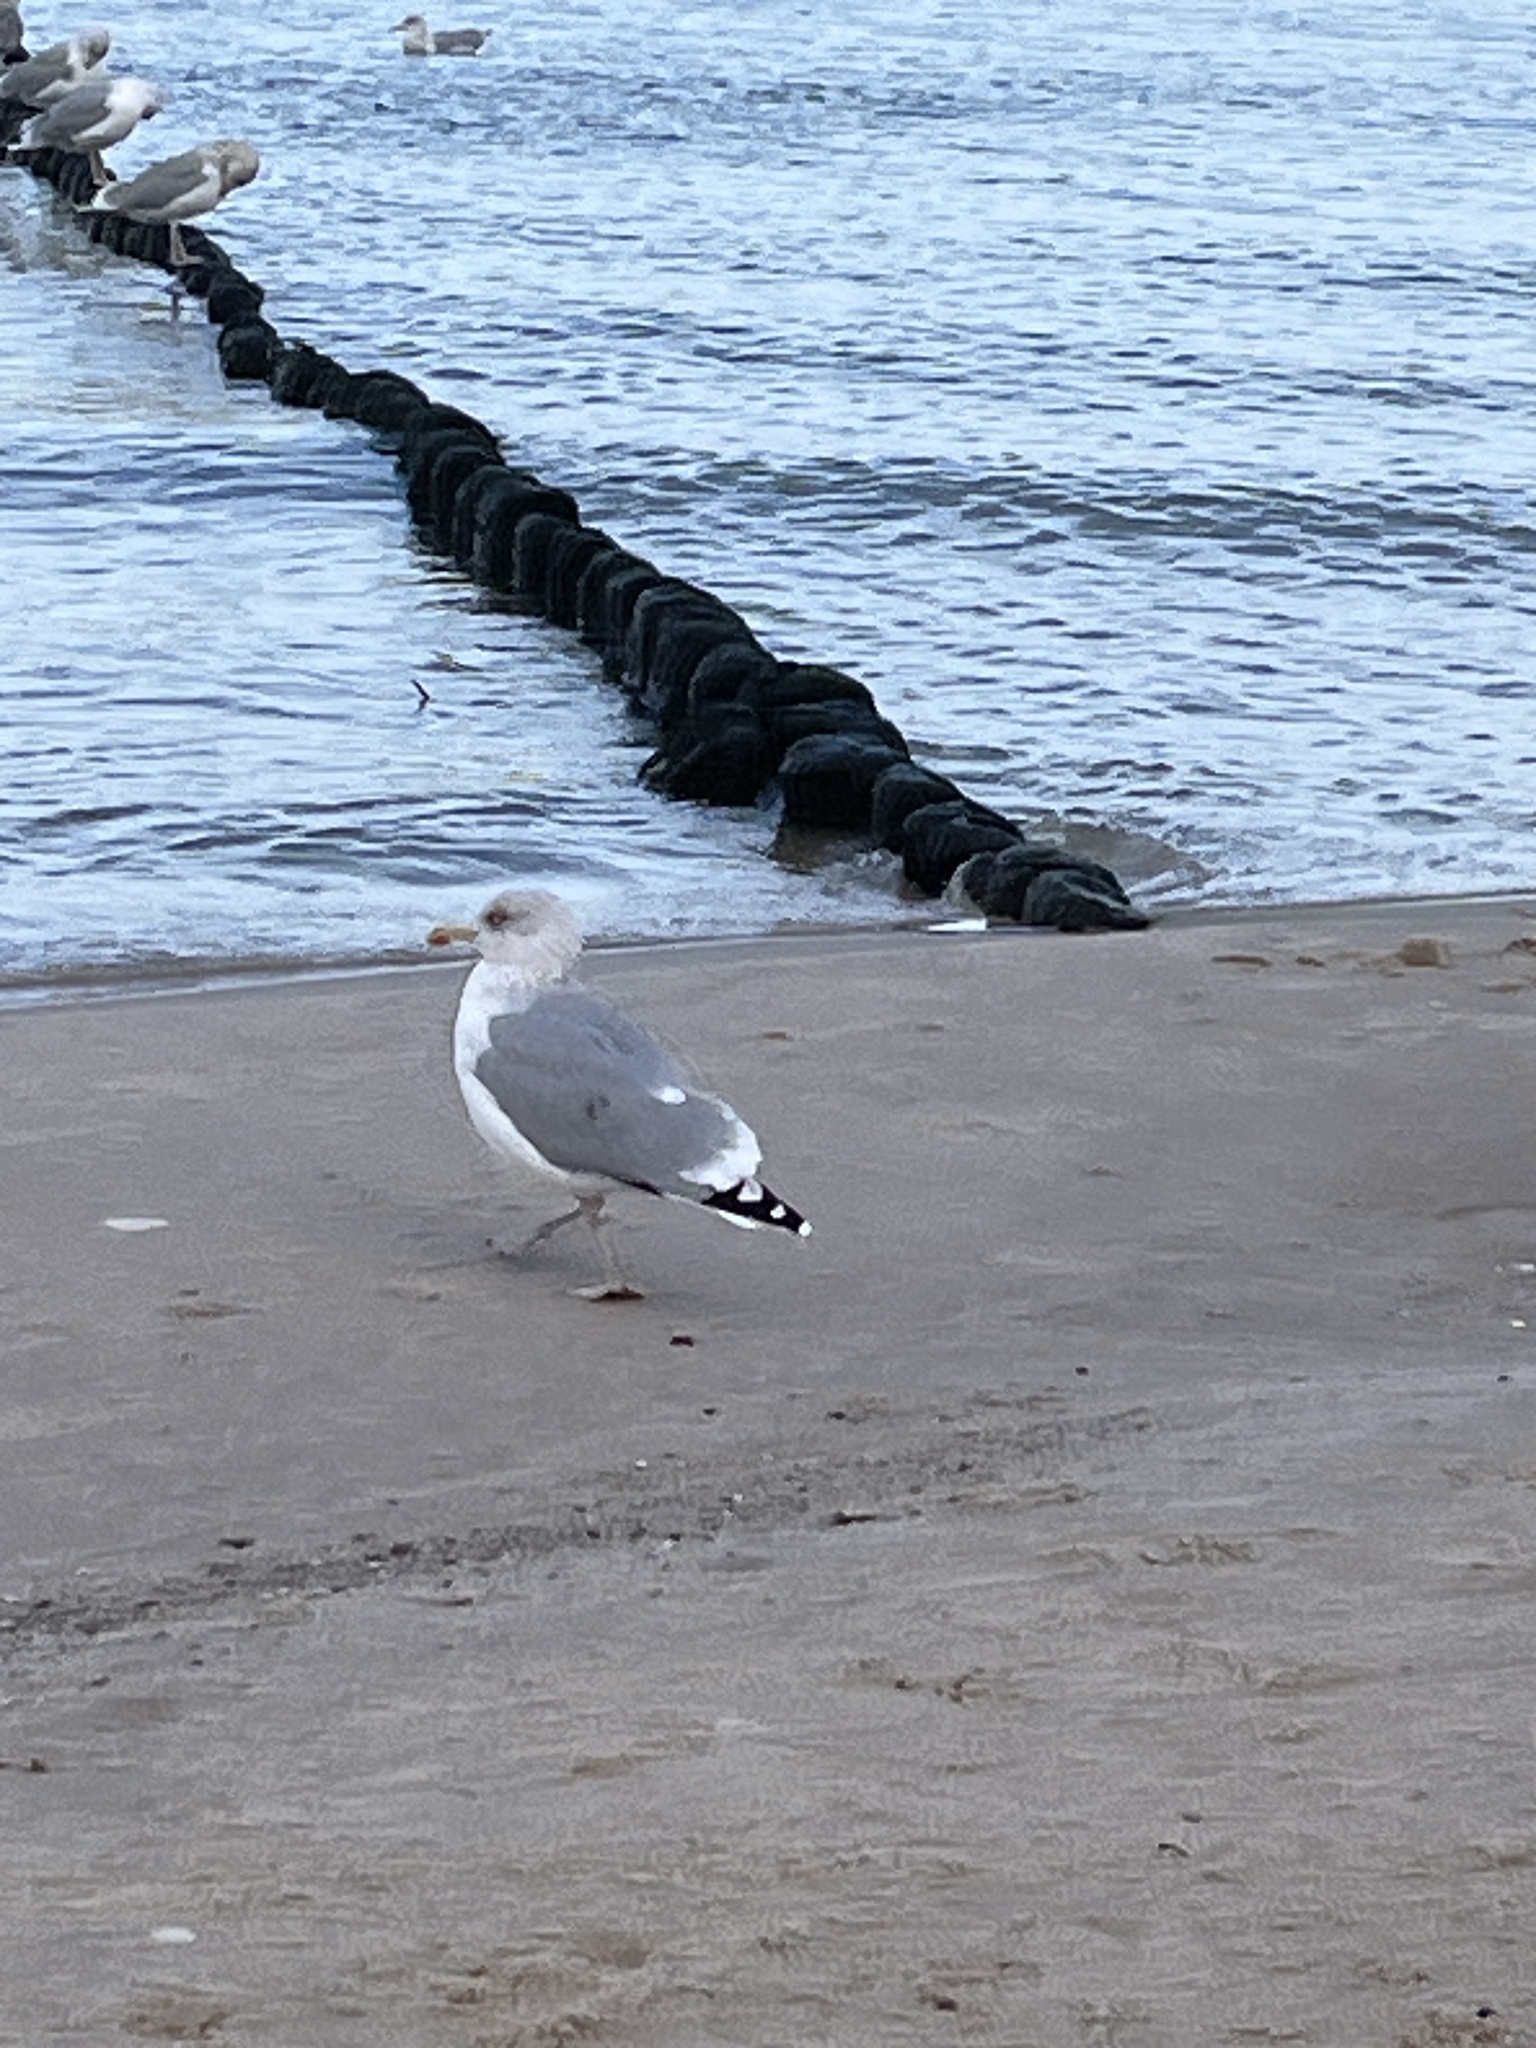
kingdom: Animalia
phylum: Chordata
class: Aves
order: Charadriiformes
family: Laridae
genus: Larus
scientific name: Larus argentatus
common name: Herring gull
